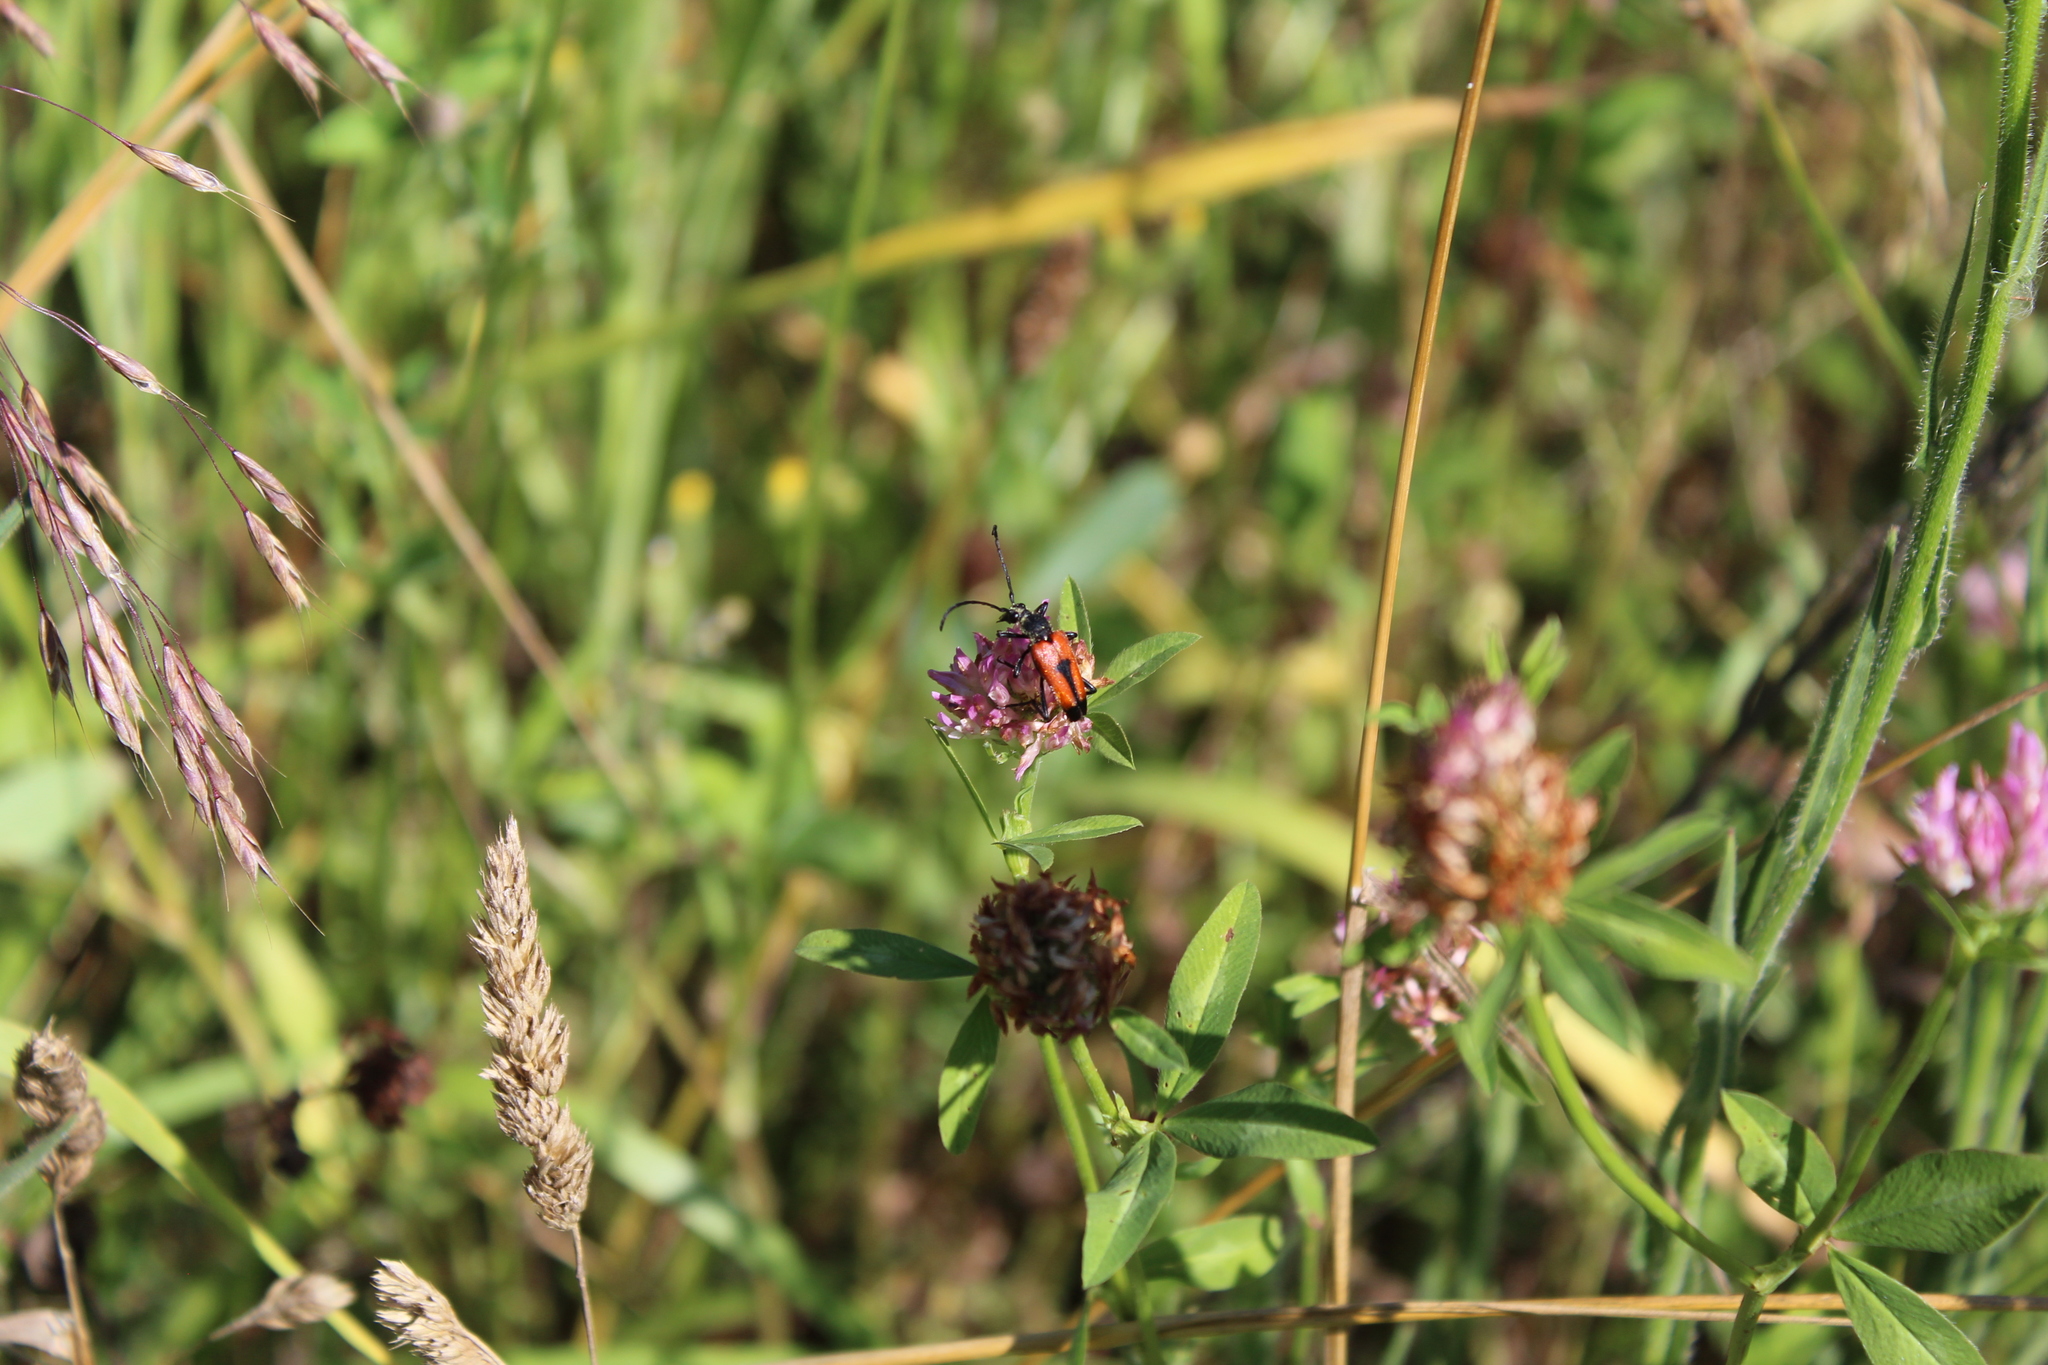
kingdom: Animalia
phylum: Arthropoda
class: Insecta
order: Coleoptera
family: Cerambycidae
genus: Stictoleptura
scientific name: Stictoleptura cordigera
